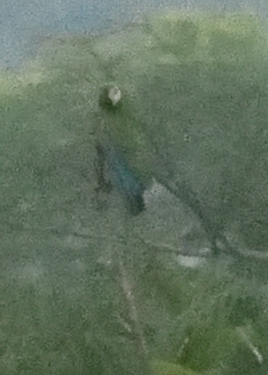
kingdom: Animalia
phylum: Chordata
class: Aves
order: Psittaciformes
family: Psittacidae
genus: Ara
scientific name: Ara severus
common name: Chestnut-fronted macaw
